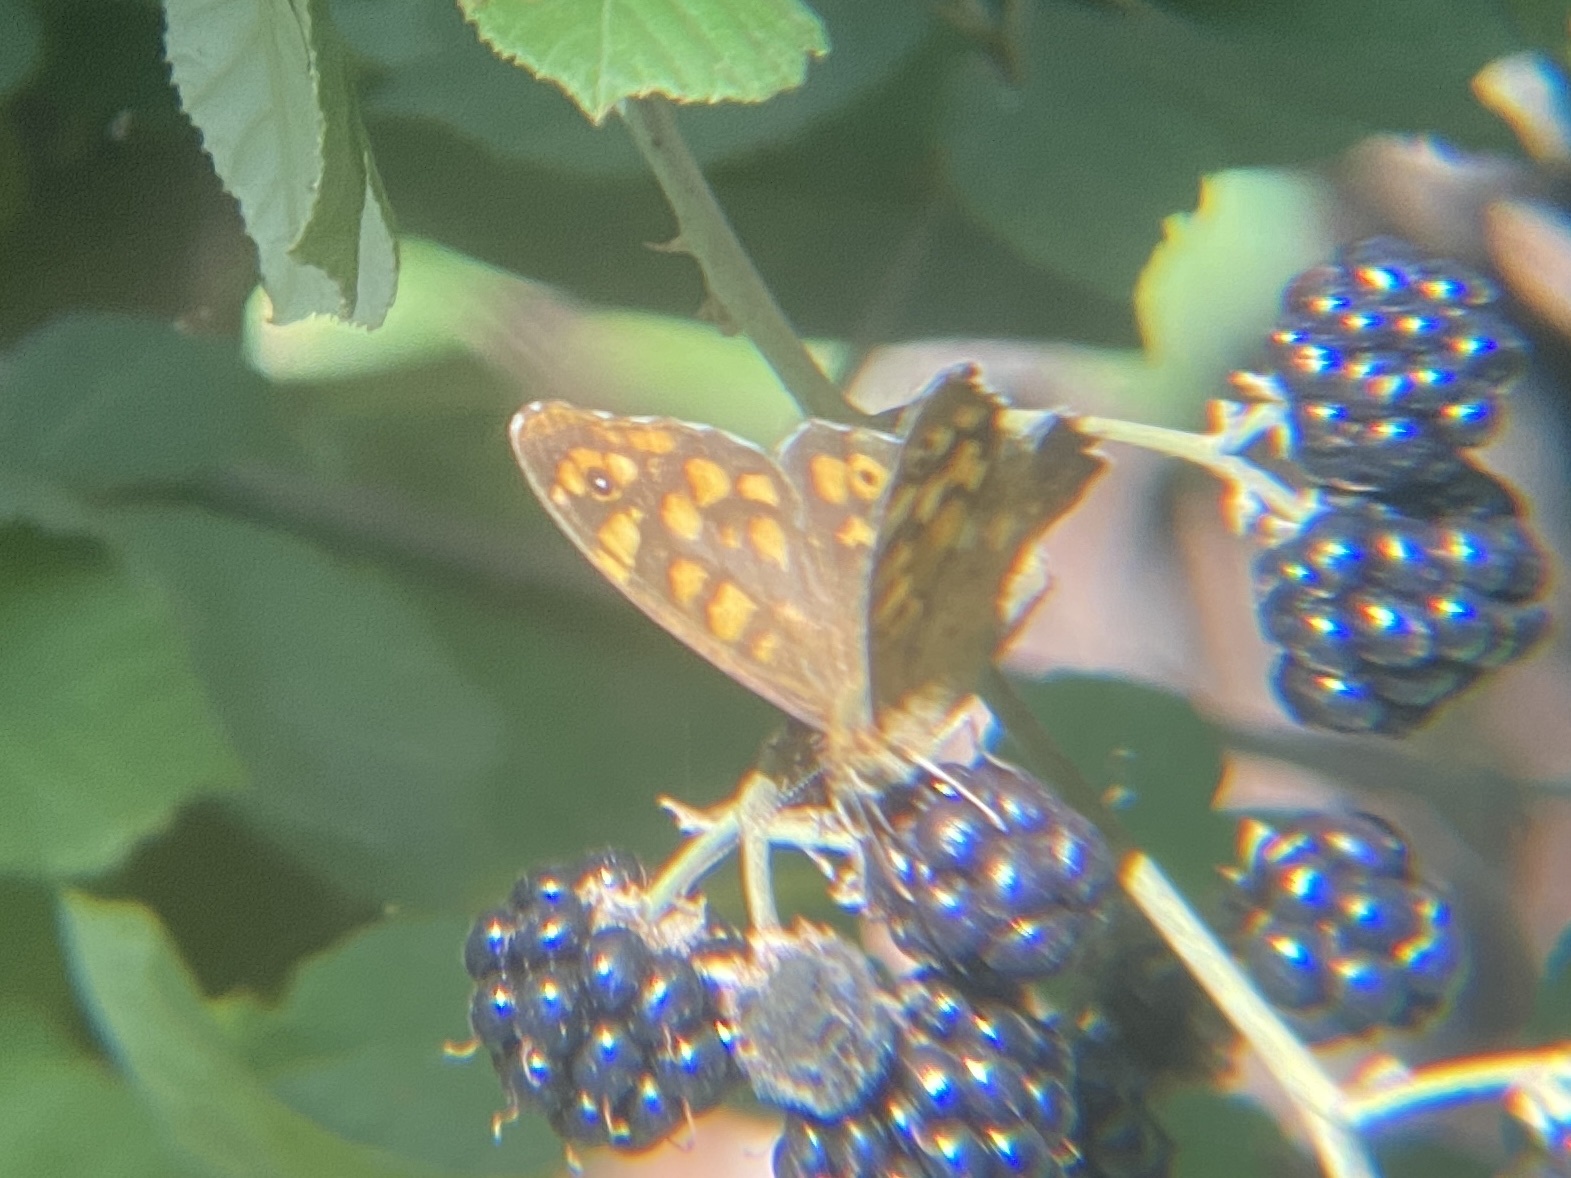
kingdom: Animalia
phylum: Arthropoda
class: Insecta
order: Lepidoptera
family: Nymphalidae
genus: Pararge
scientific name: Pararge aegeria
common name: Speckled wood
